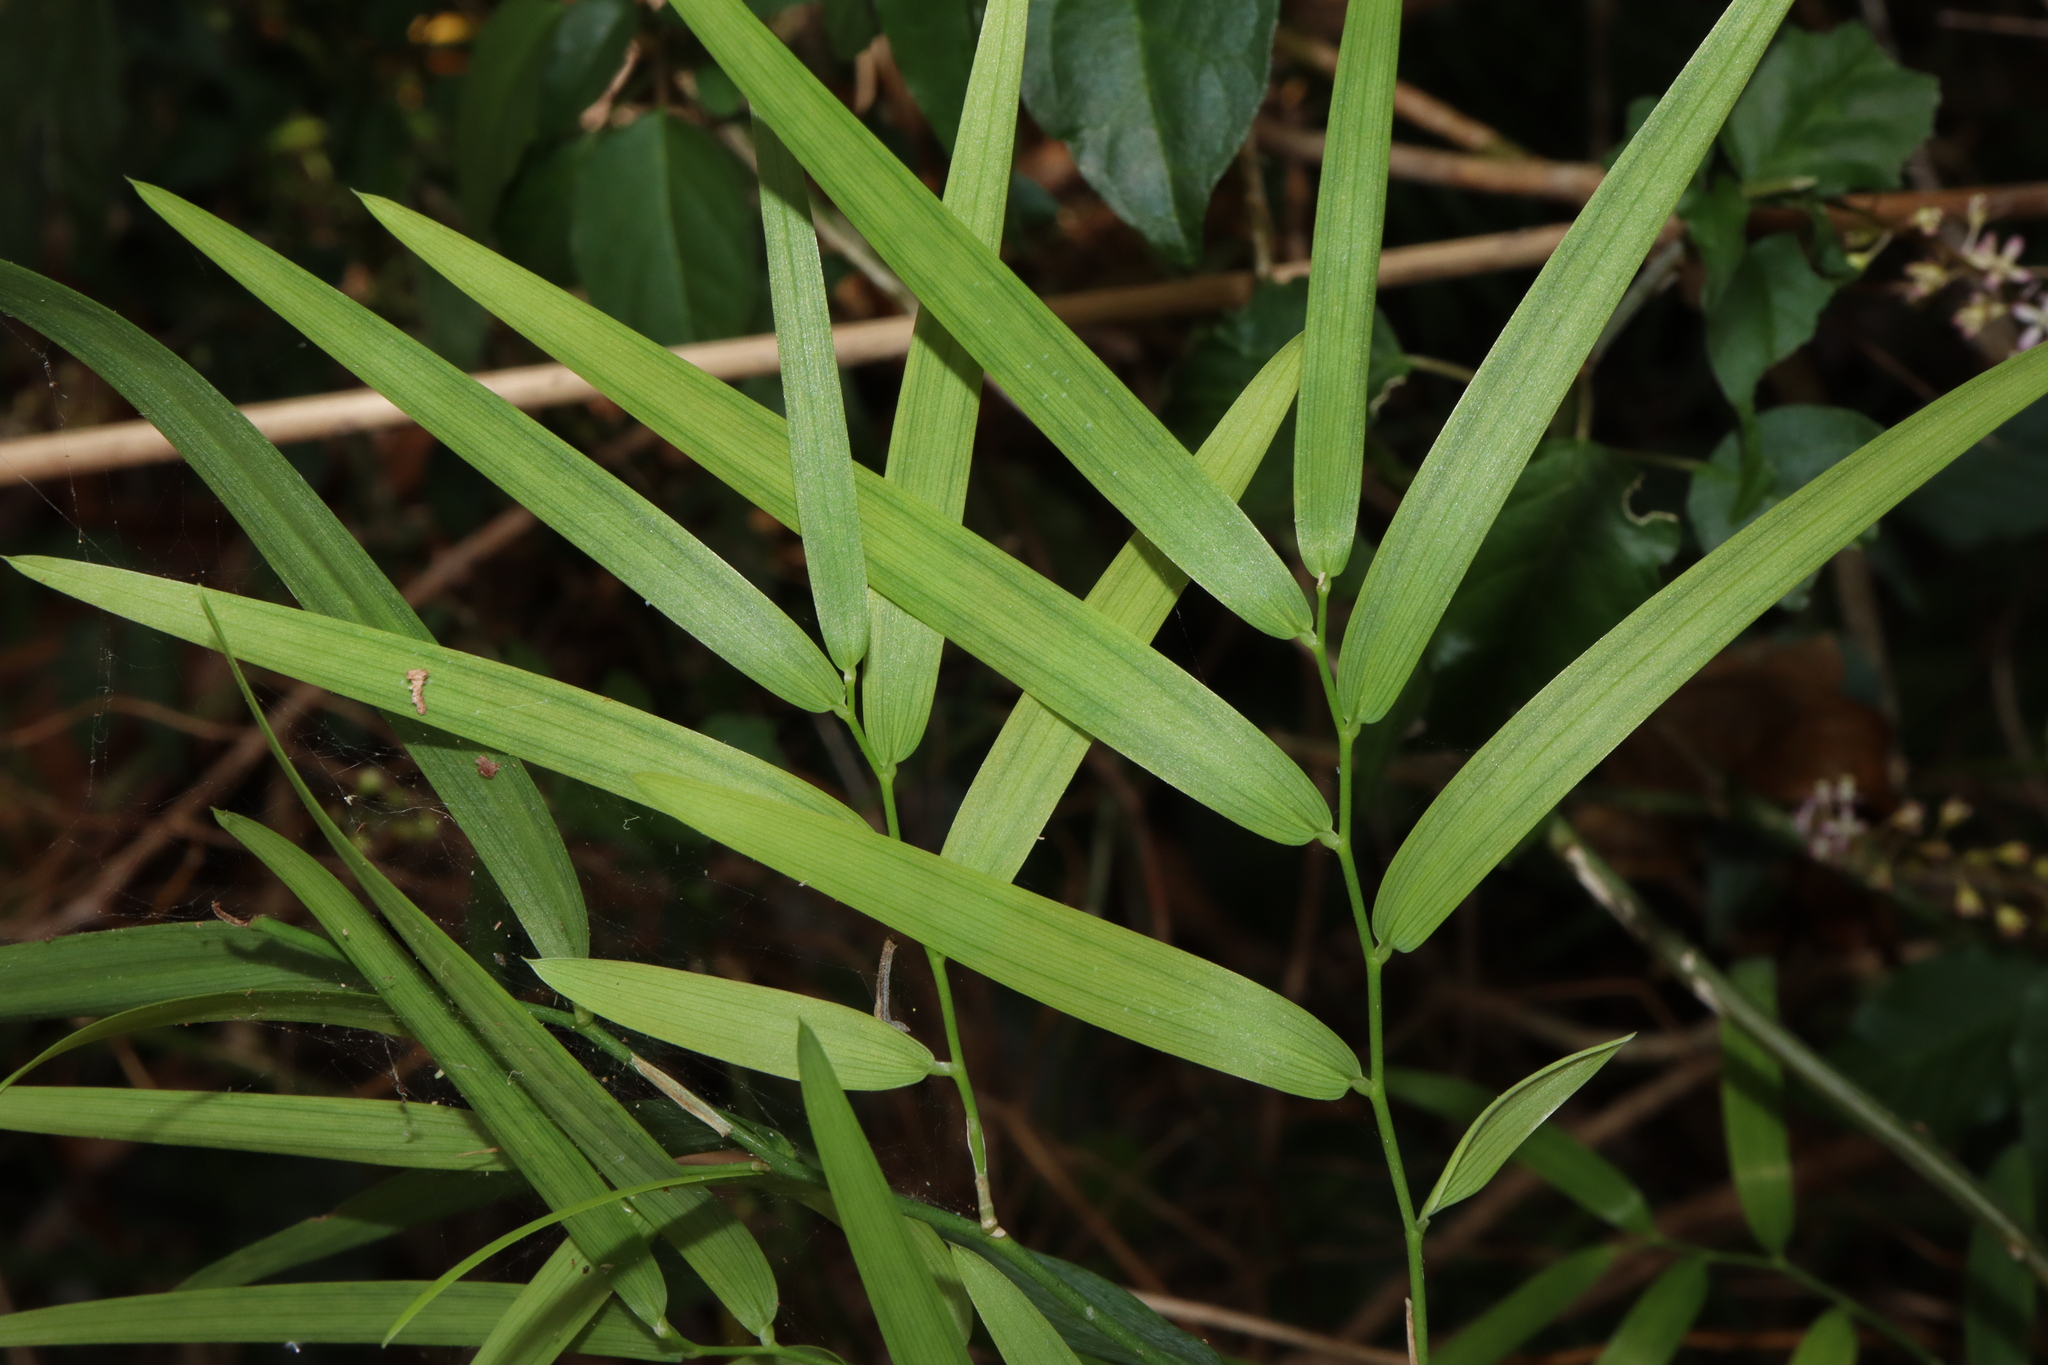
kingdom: Plantae
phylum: Tracheophyta
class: Liliopsida
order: Asparagales
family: Asphodelaceae
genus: Geitonoplesium
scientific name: Geitonoplesium cymosum
